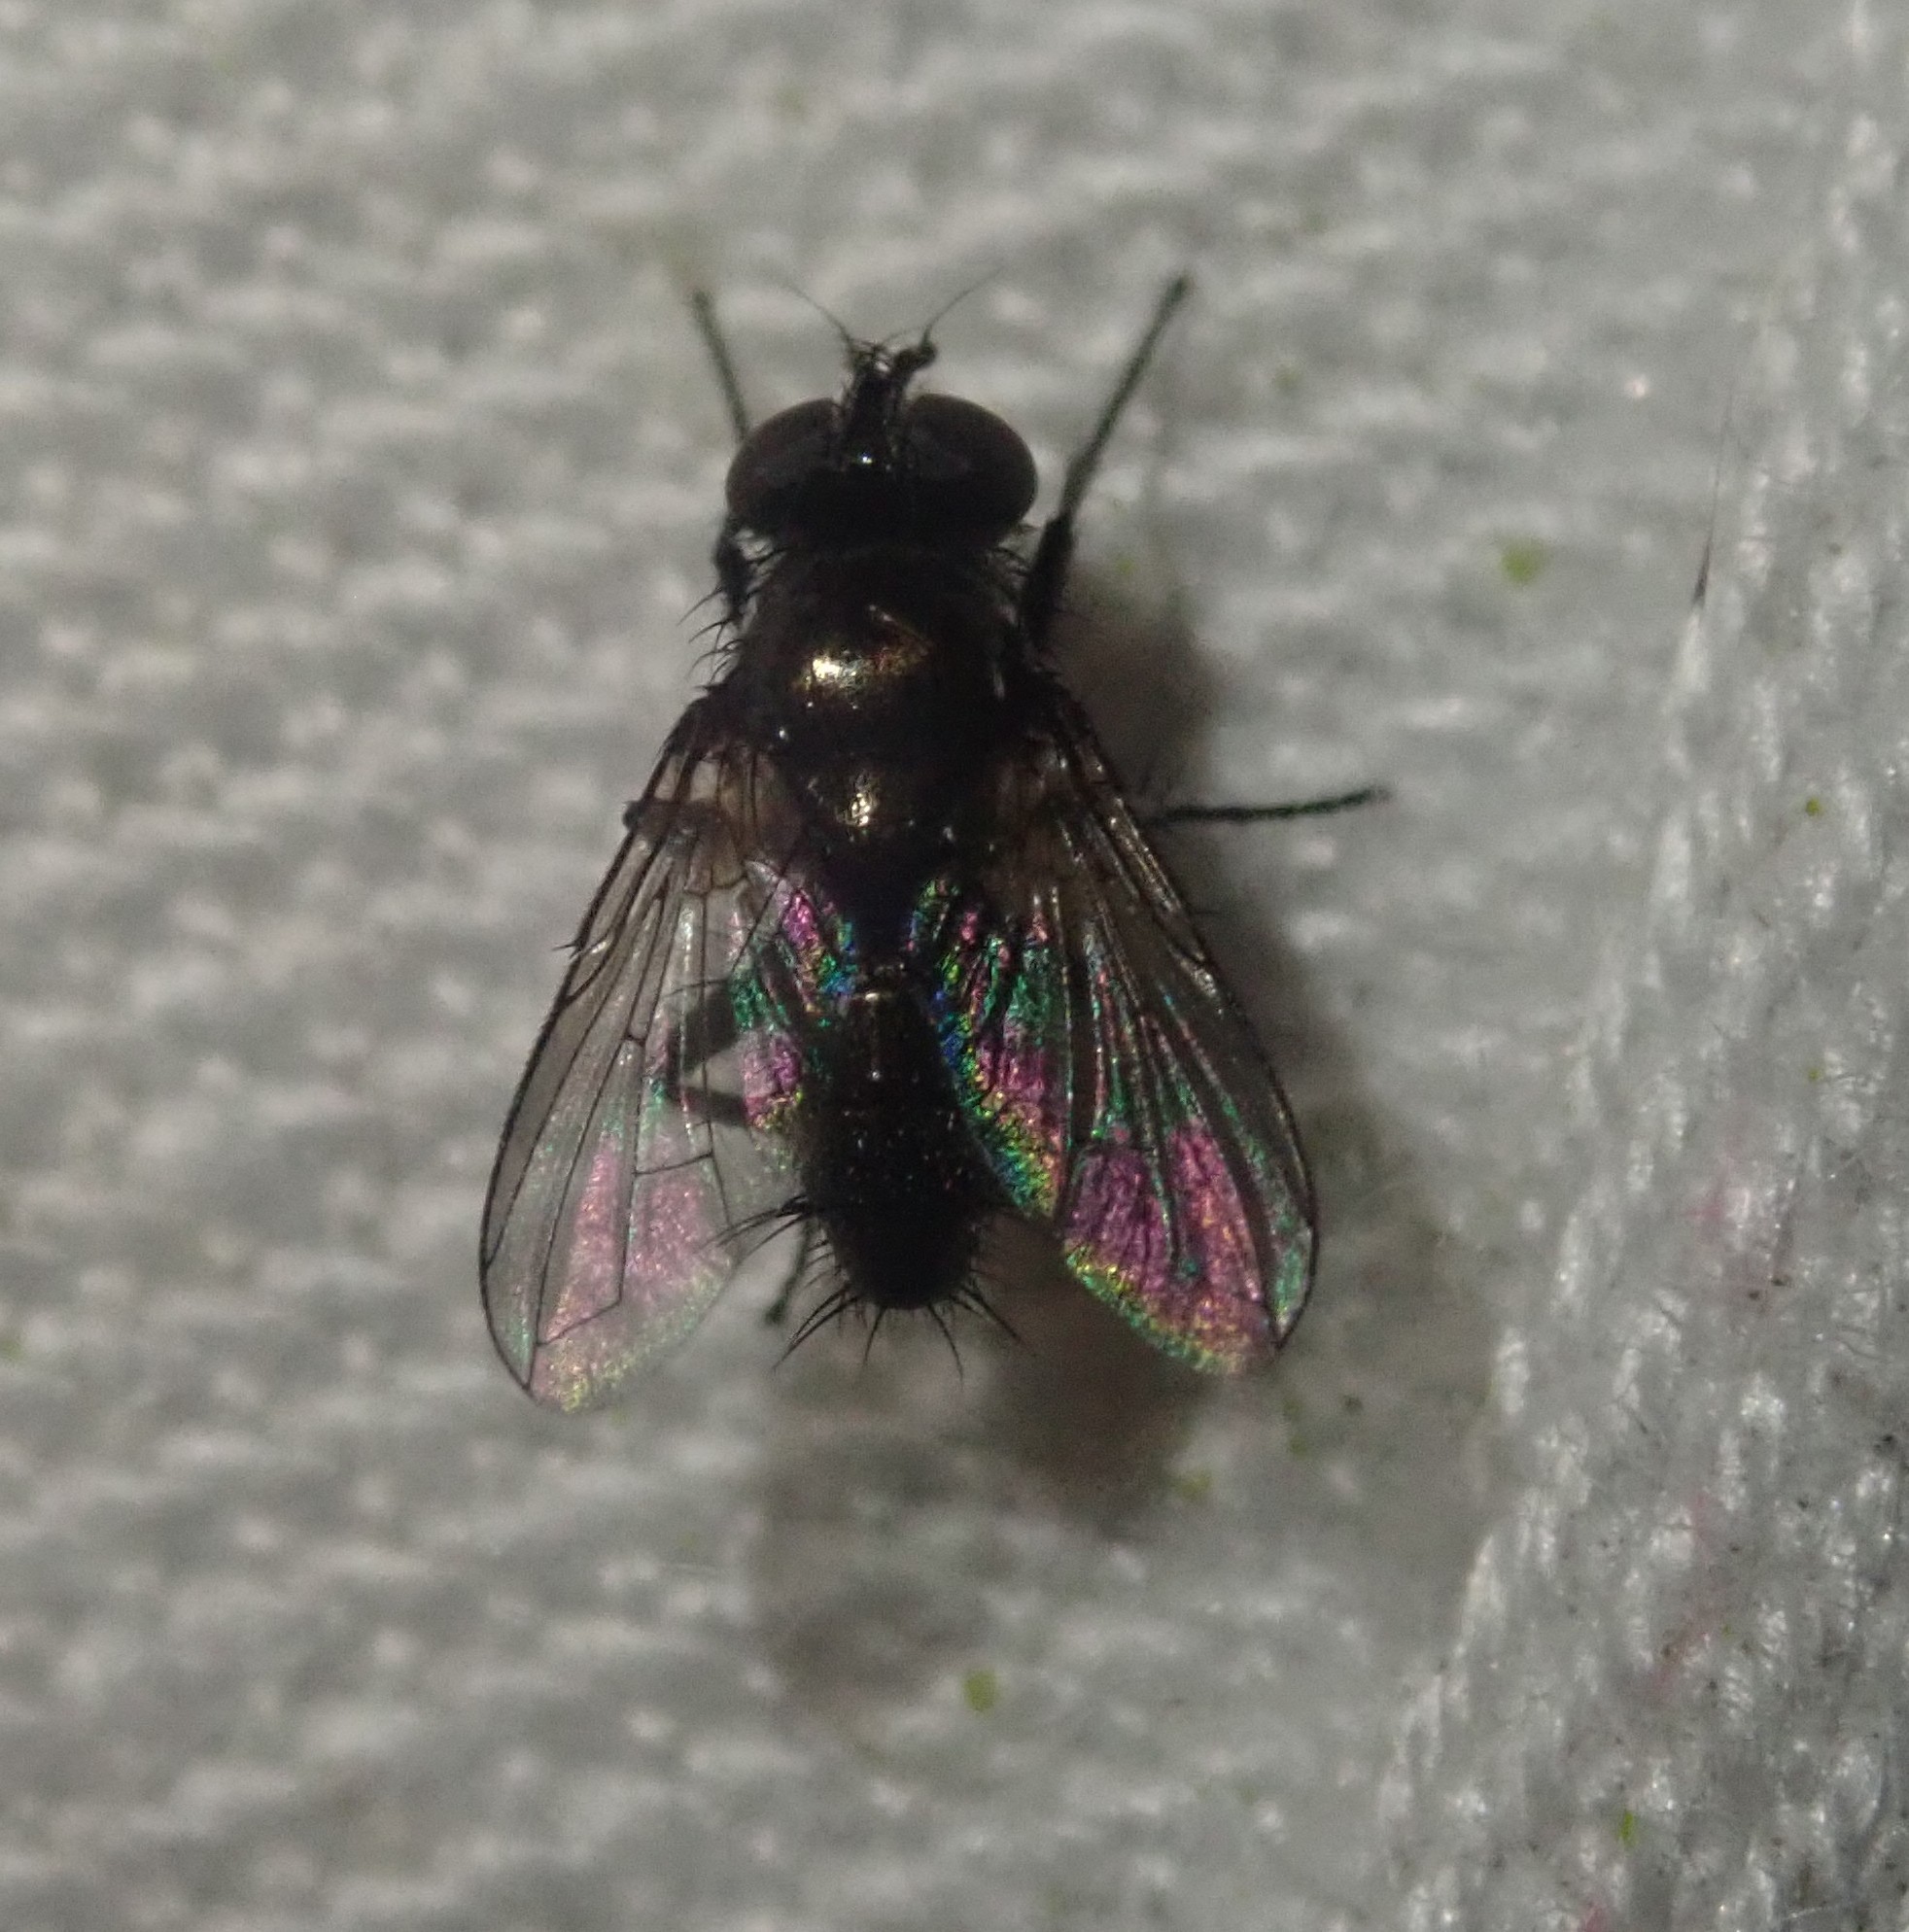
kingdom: Animalia
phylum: Arthropoda
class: Insecta
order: Diptera
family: Calliphoridae
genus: Rhinophora
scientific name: Rhinophora lepida
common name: Pouting woodlouse-fly
